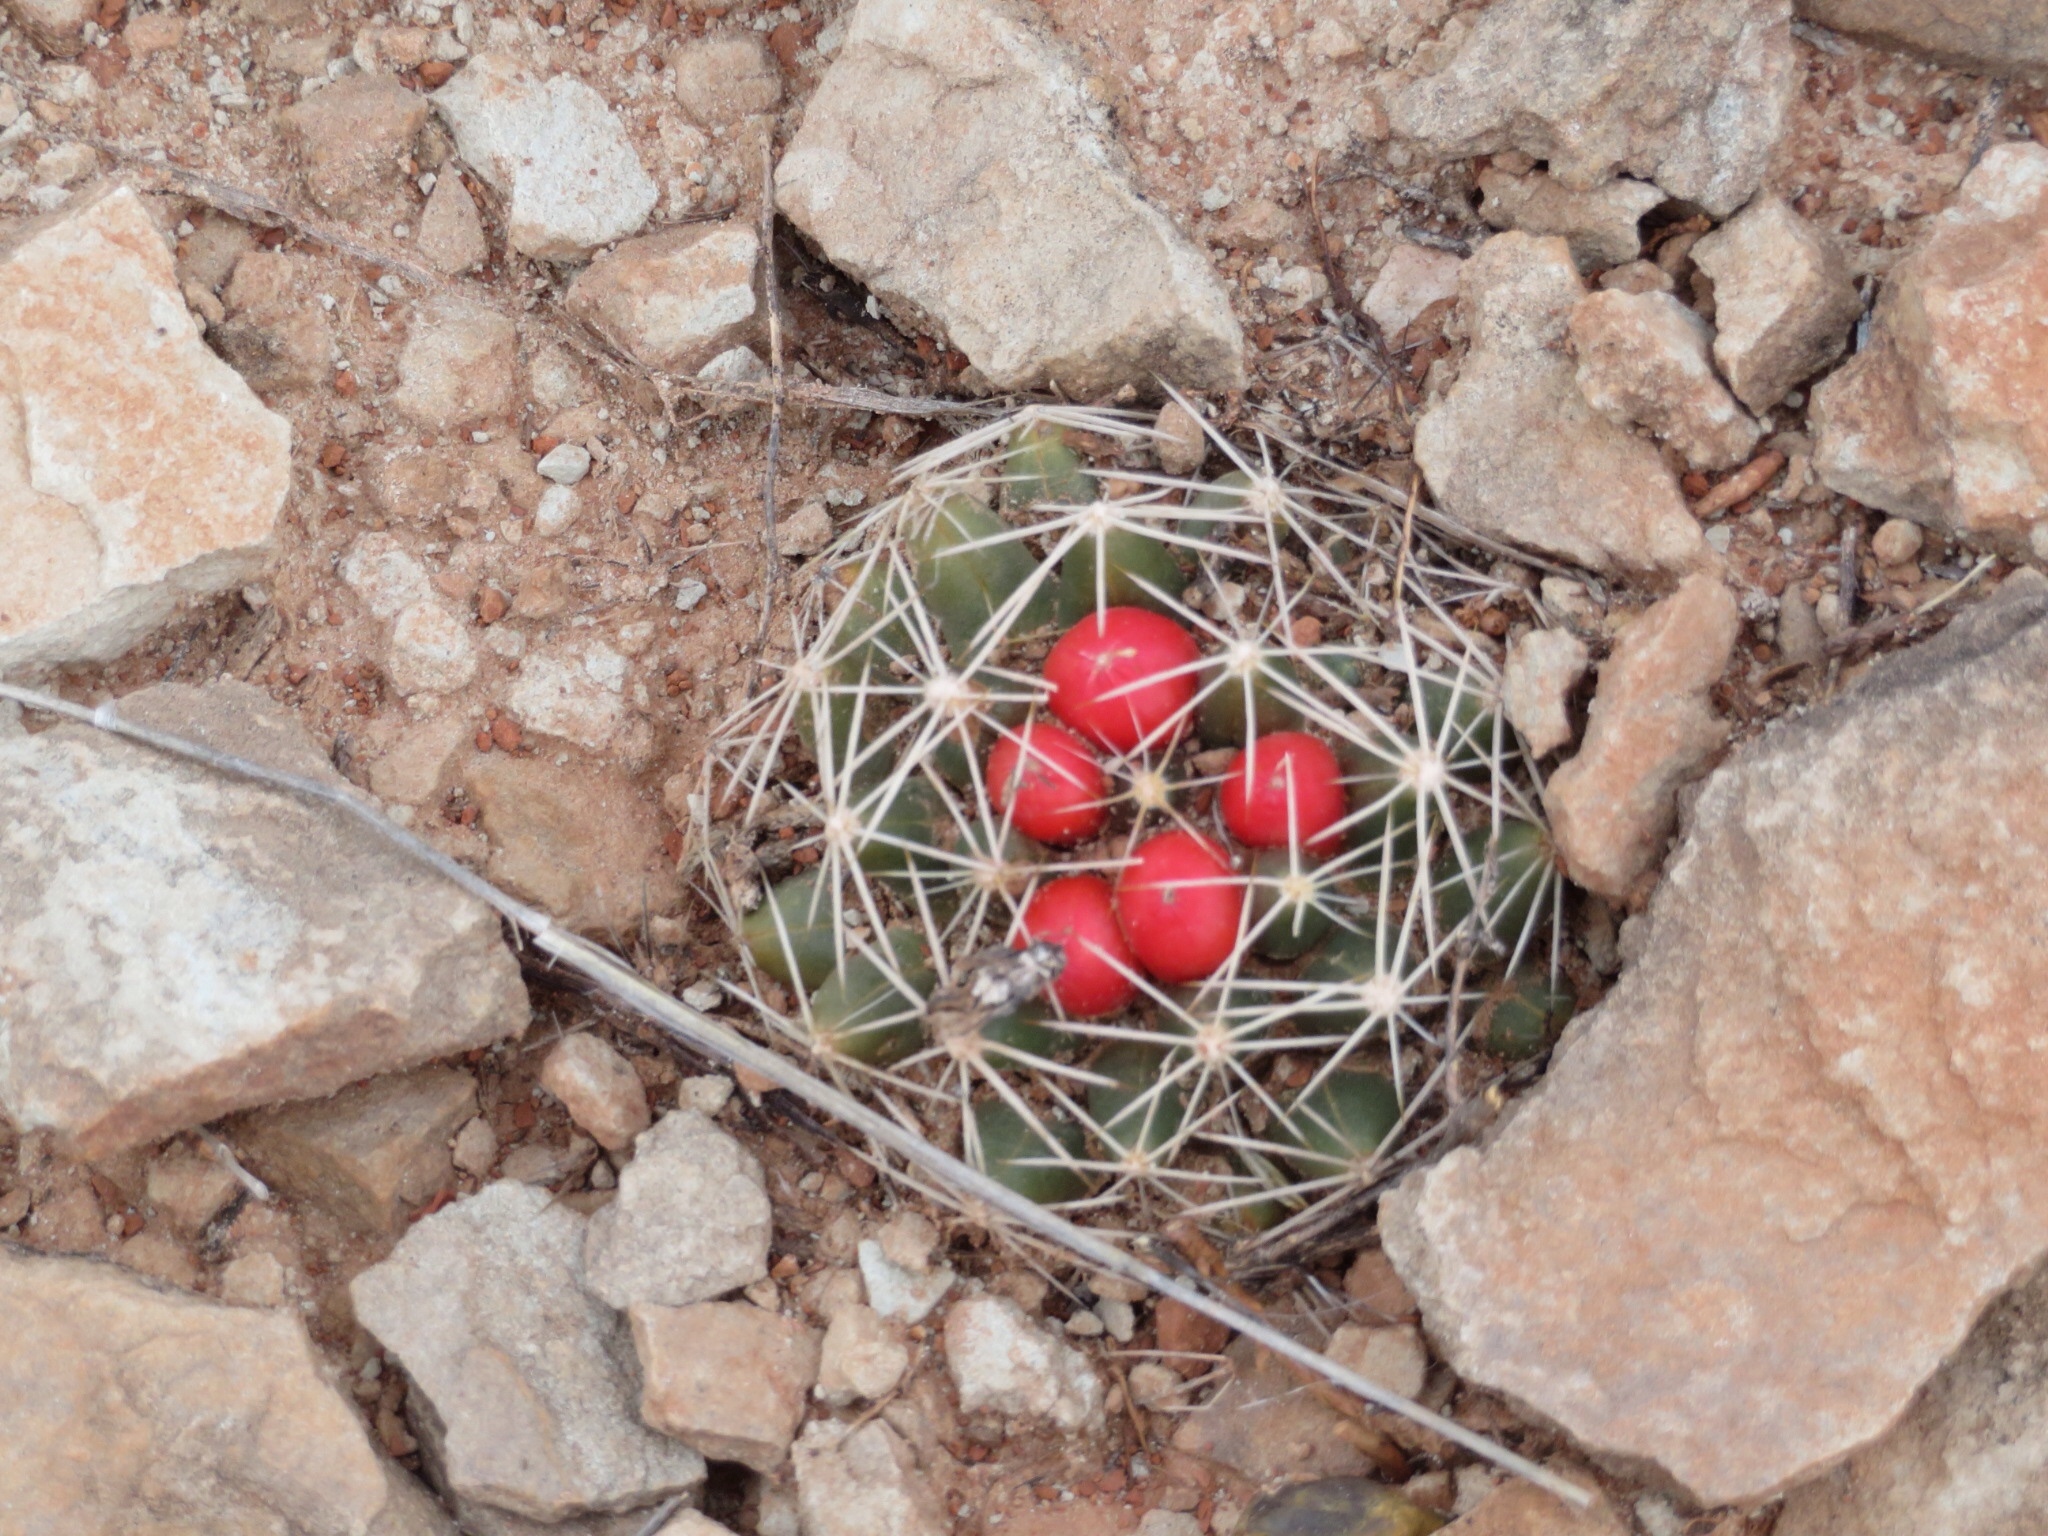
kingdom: Plantae
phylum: Tracheophyta
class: Magnoliopsida
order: Caryophyllales
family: Cactaceae
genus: Pelecyphora
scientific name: Pelecyphora missouriensis
